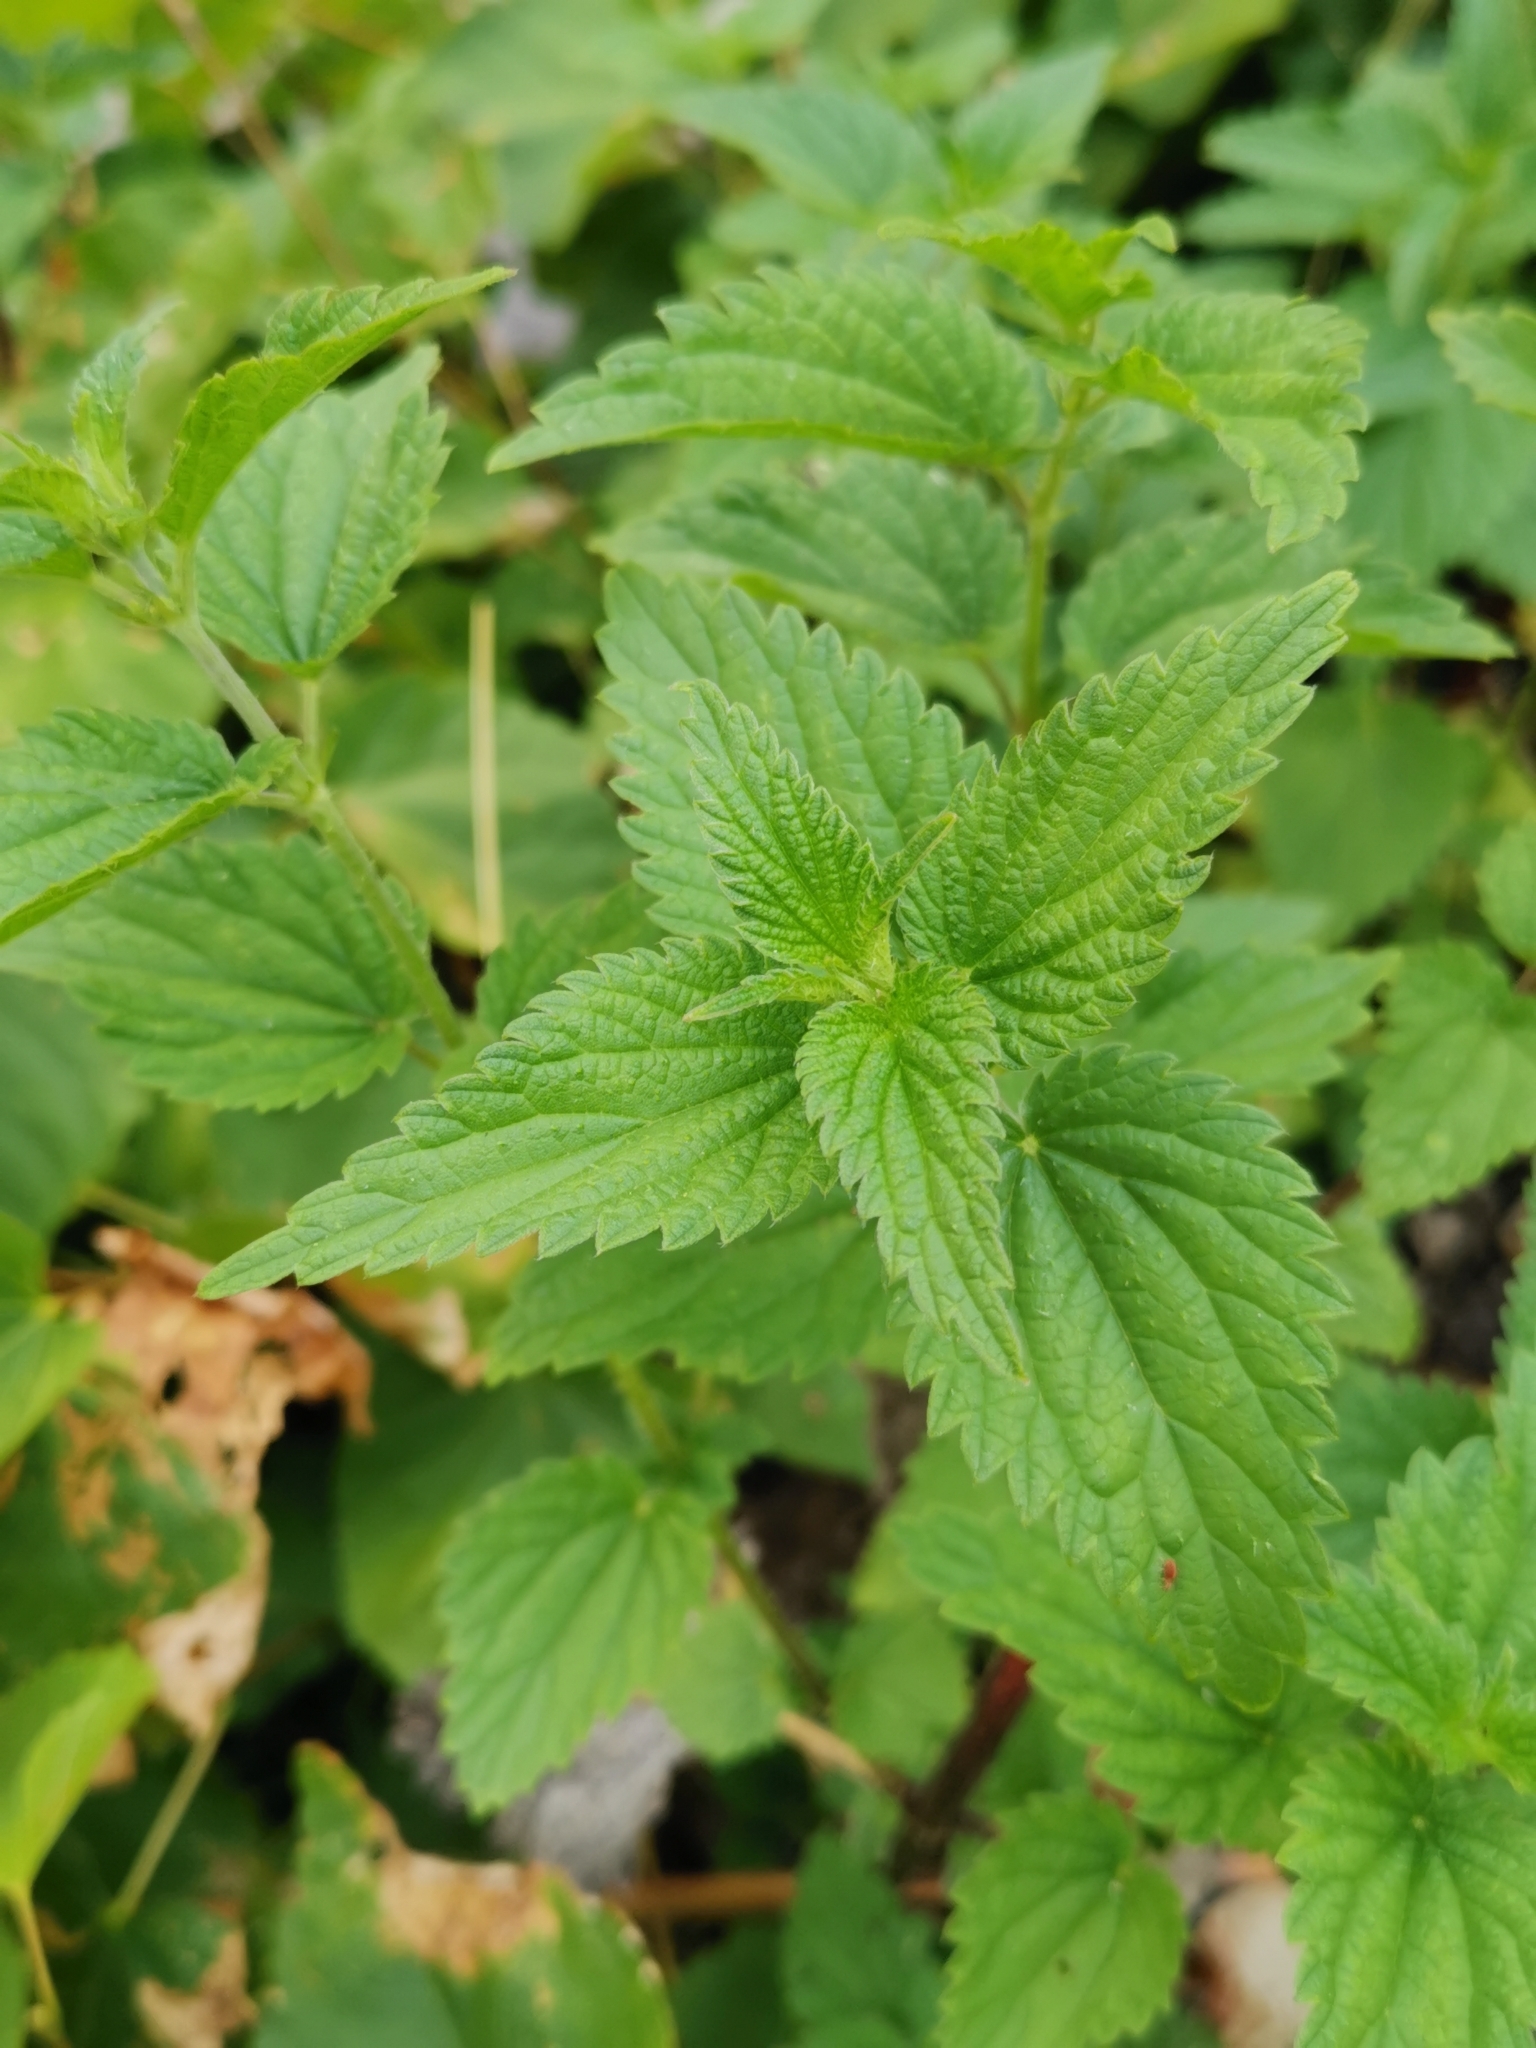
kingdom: Plantae
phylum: Tracheophyta
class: Magnoliopsida
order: Rosales
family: Urticaceae
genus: Urtica
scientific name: Urtica dioica
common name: Common nettle
